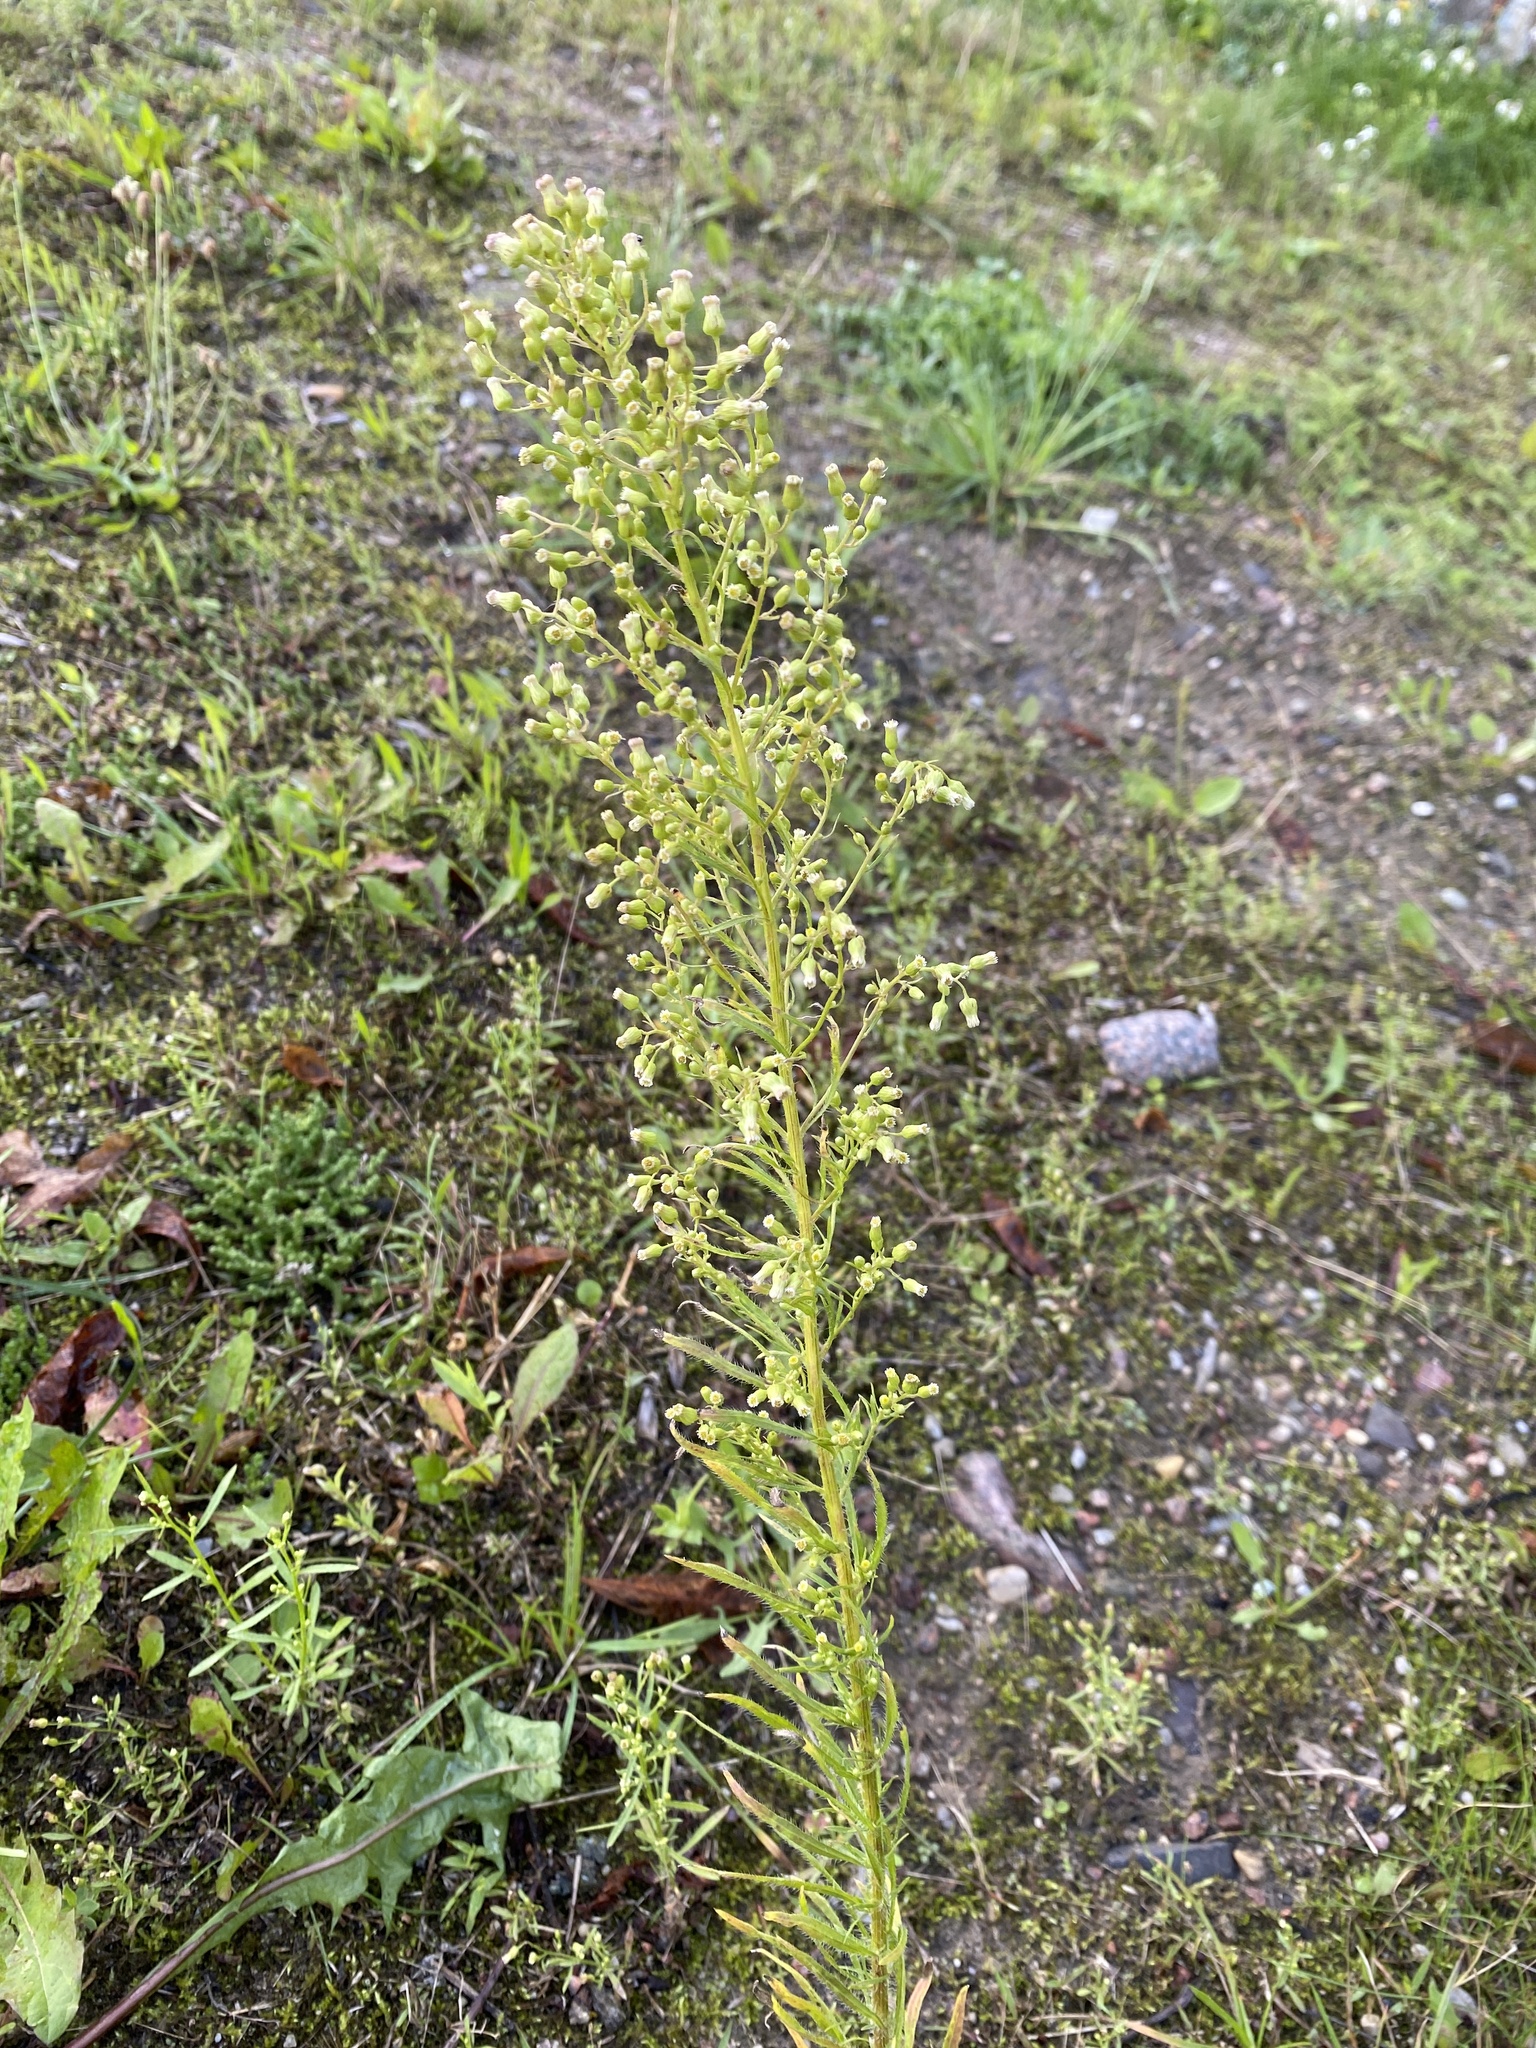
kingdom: Plantae
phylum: Tracheophyta
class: Magnoliopsida
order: Asterales
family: Asteraceae
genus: Erigeron
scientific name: Erigeron canadensis
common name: Canadian fleabane
